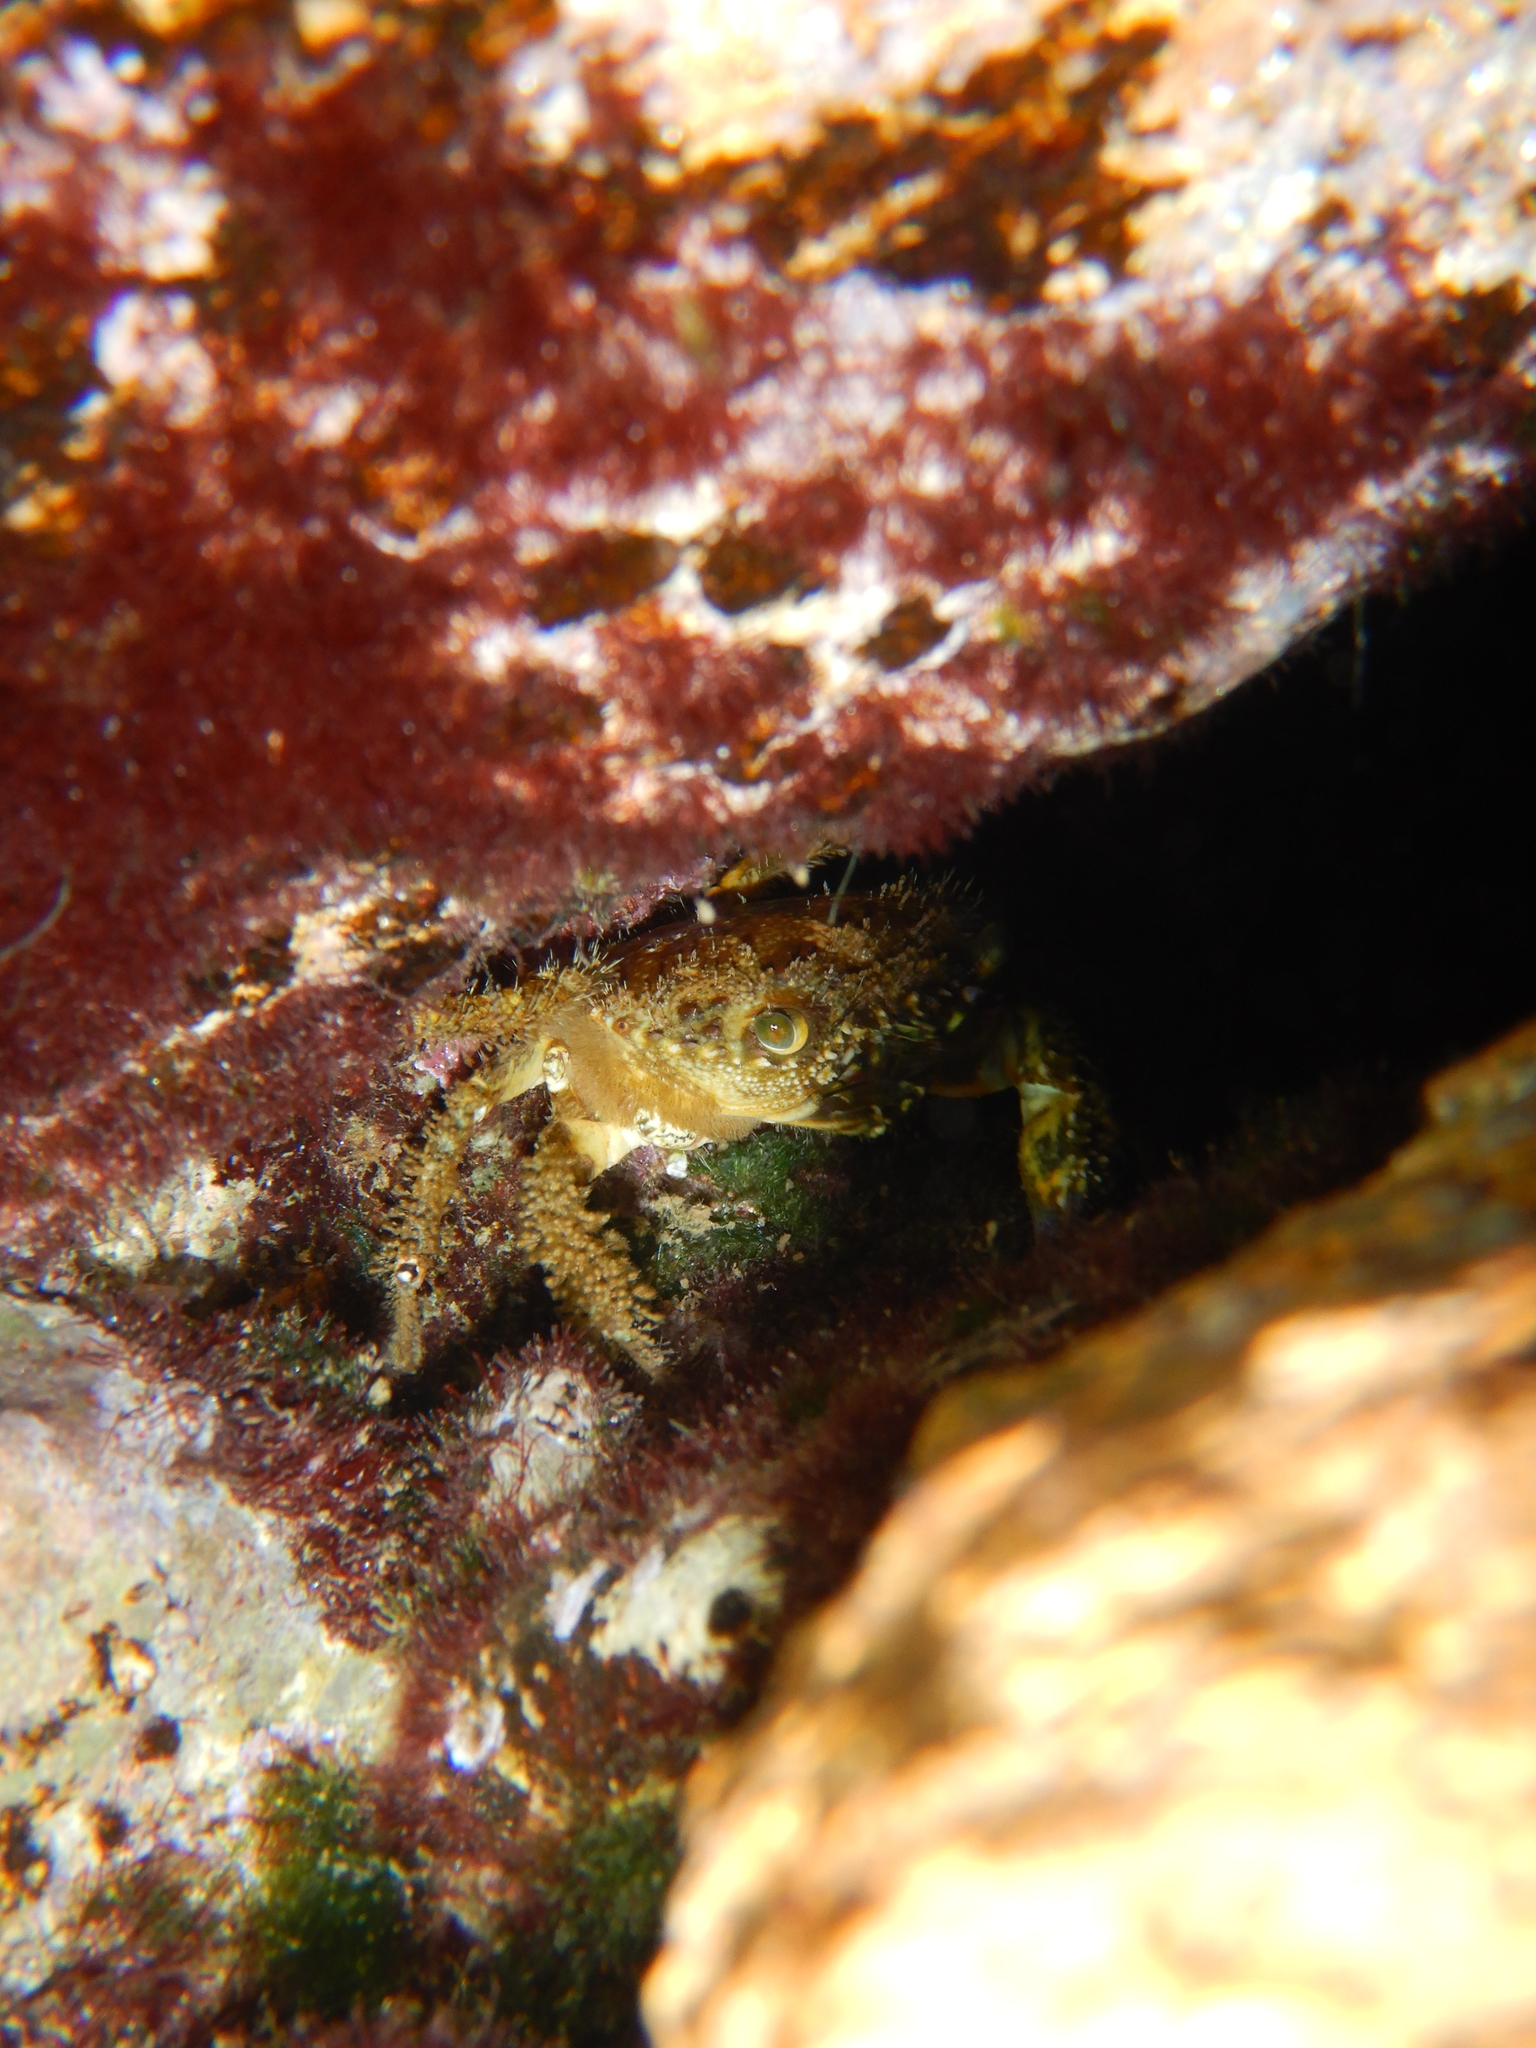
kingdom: Animalia
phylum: Arthropoda
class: Malacostraca
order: Decapoda
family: Eriphiidae
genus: Eriphia
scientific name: Eriphia verrucosa
